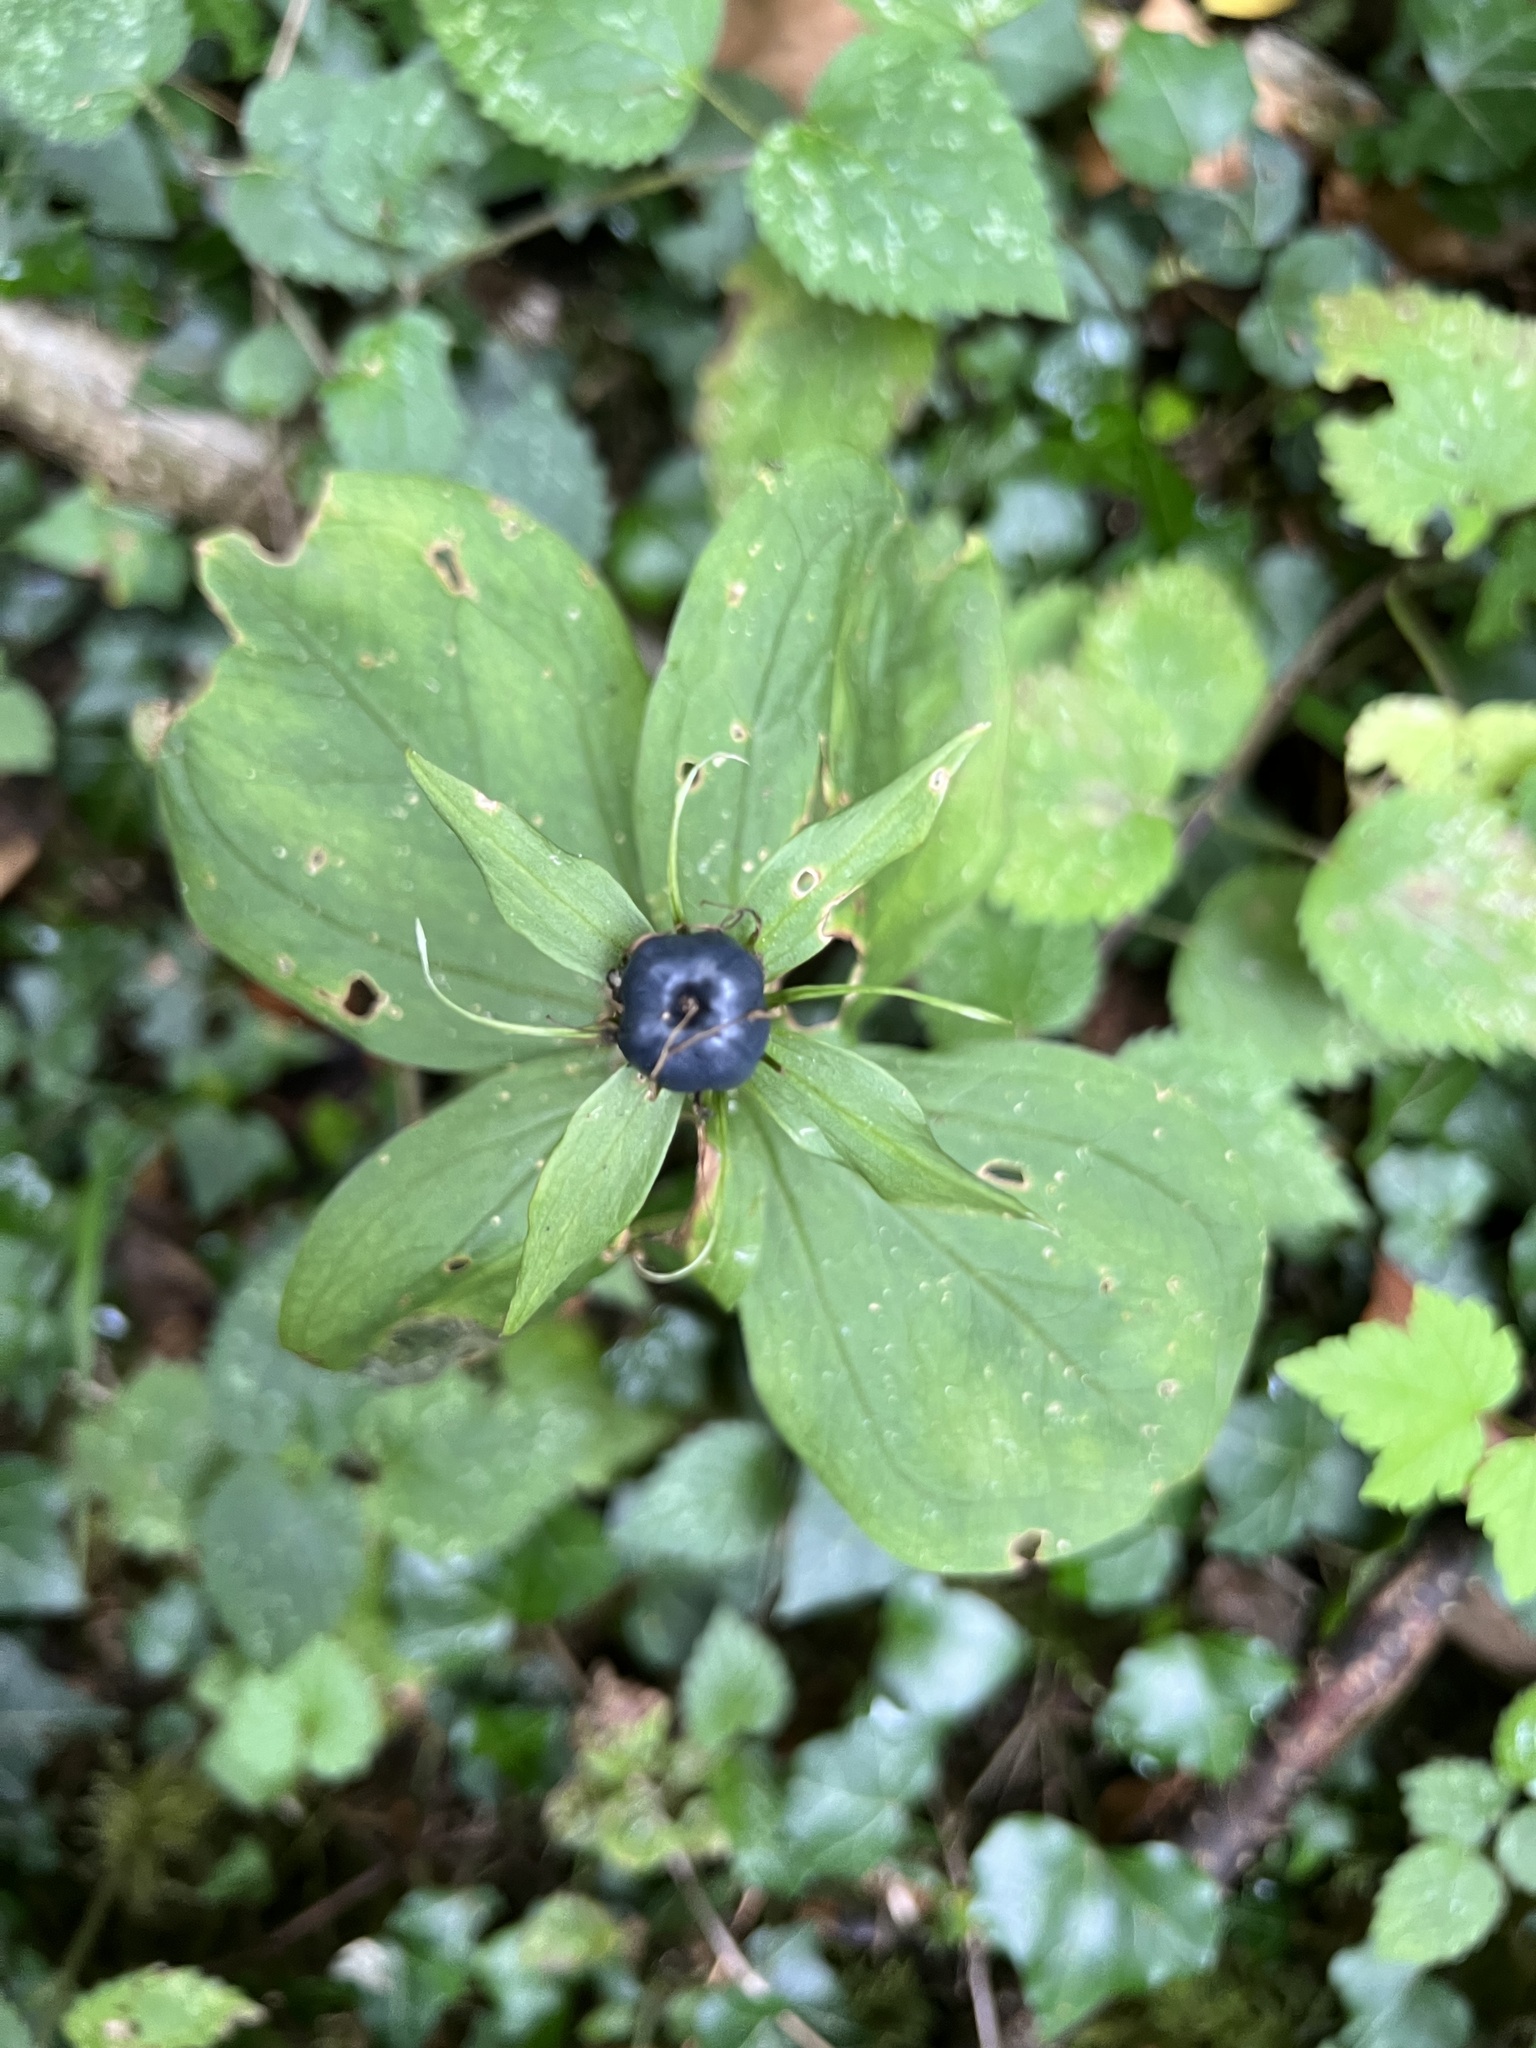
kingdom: Plantae
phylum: Tracheophyta
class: Liliopsida
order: Liliales
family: Melanthiaceae
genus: Paris
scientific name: Paris quadrifolia
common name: Herb-paris
